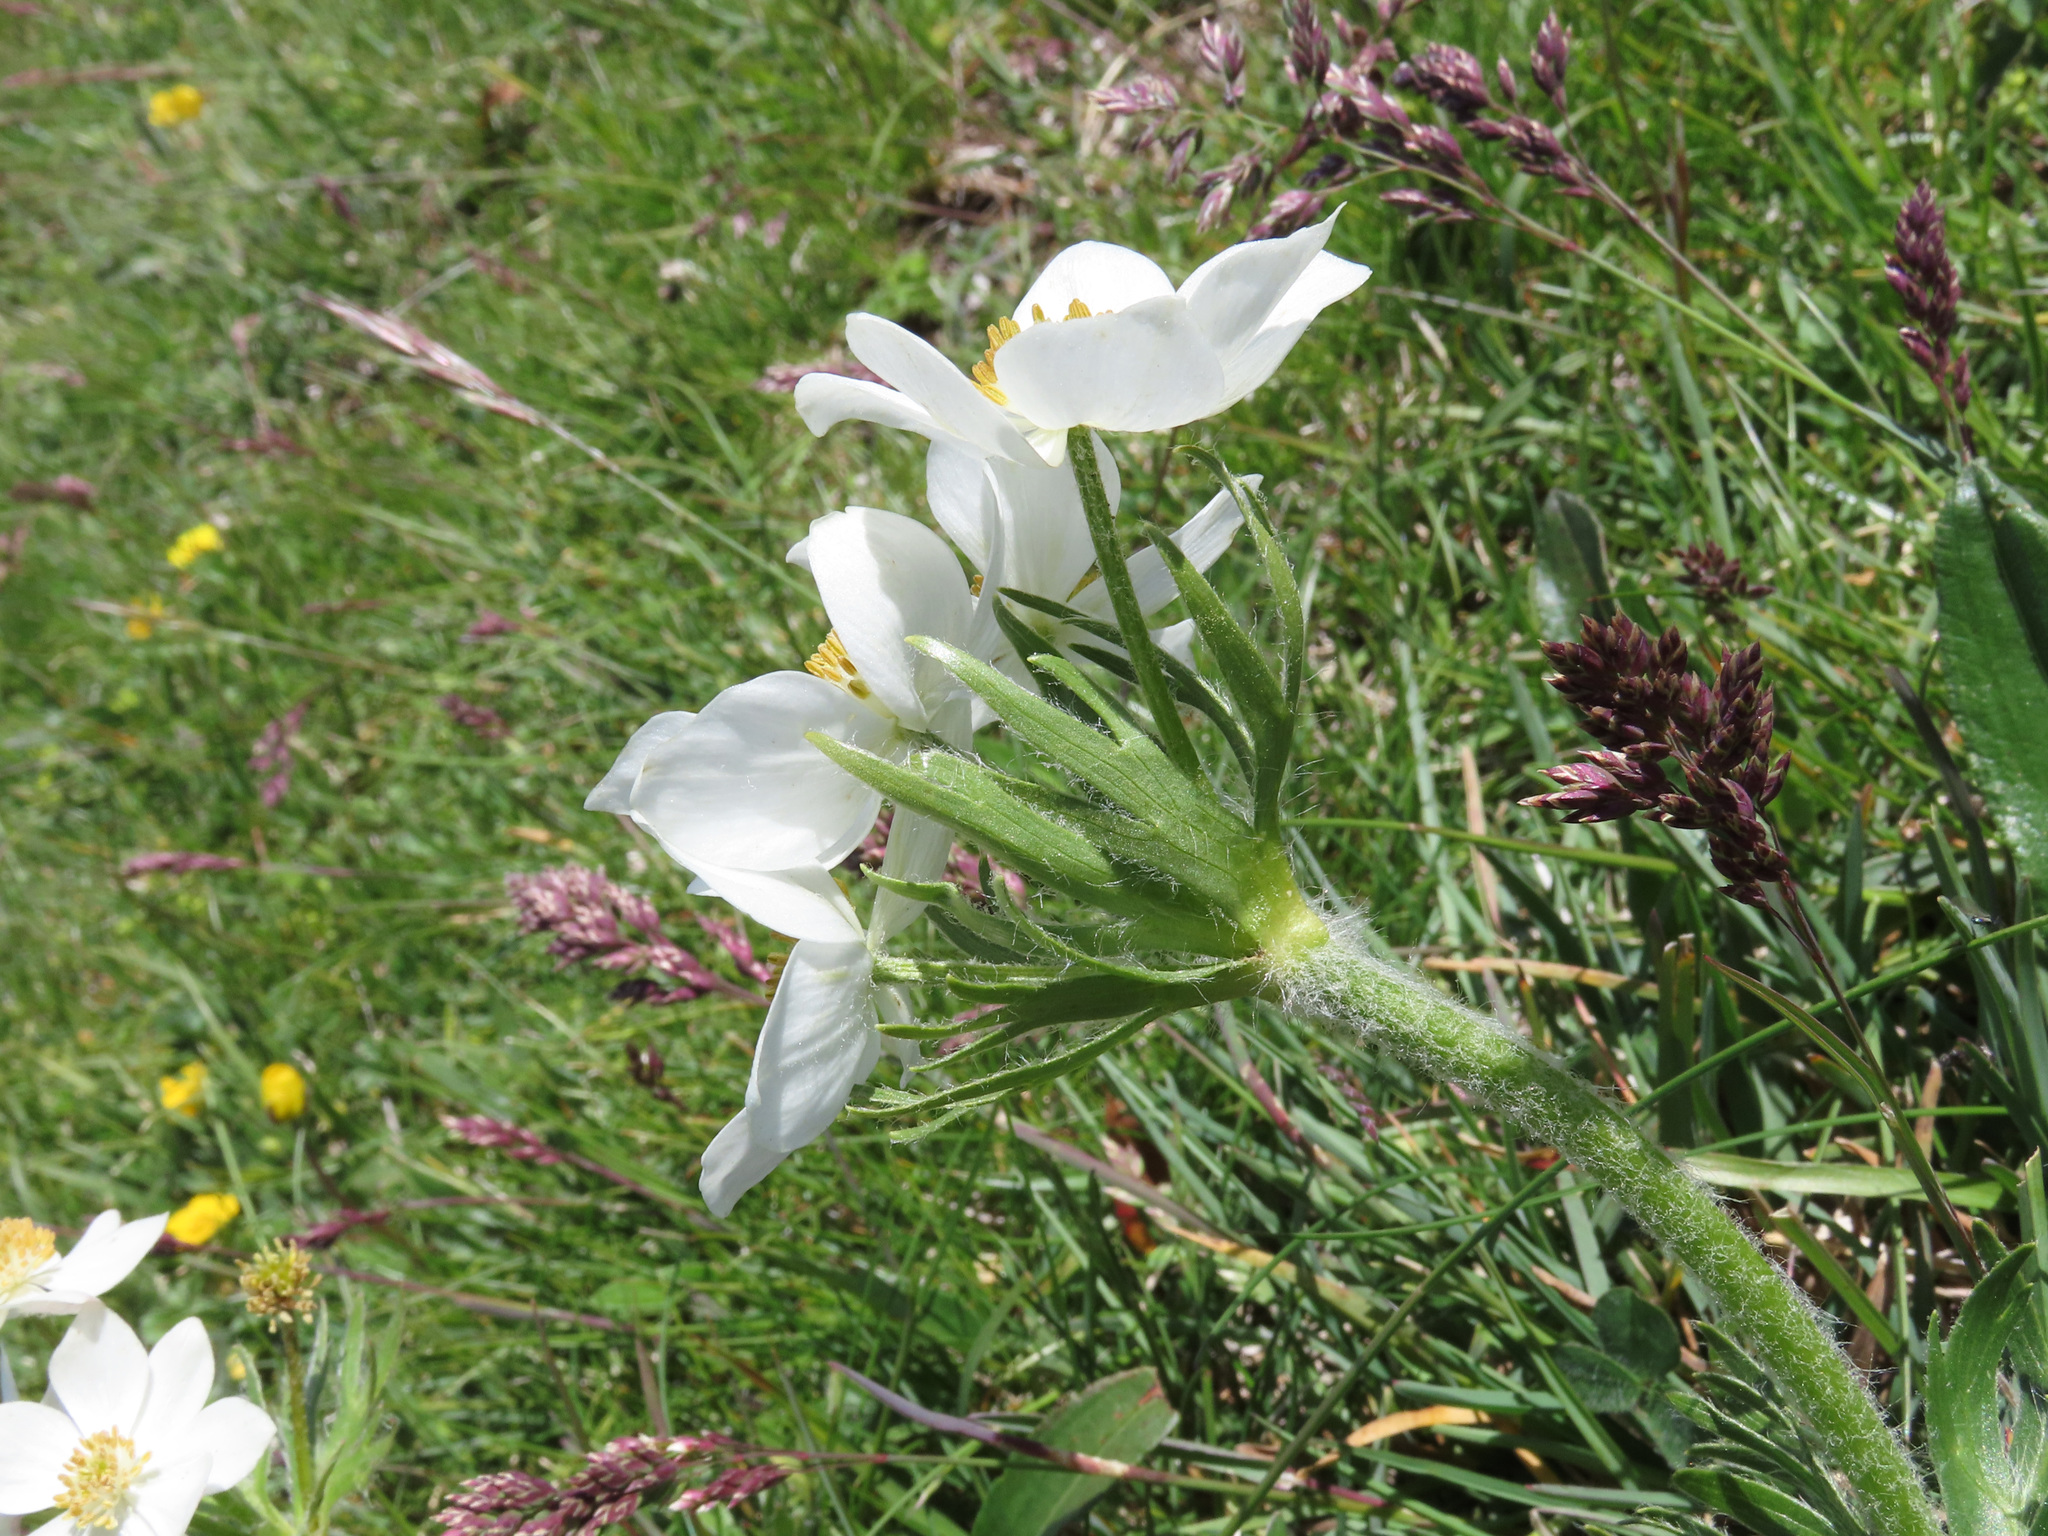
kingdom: Plantae
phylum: Tracheophyta
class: Magnoliopsida
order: Ranunculales
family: Ranunculaceae
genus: Anemonastrum
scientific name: Anemonastrum narcissiflorum
